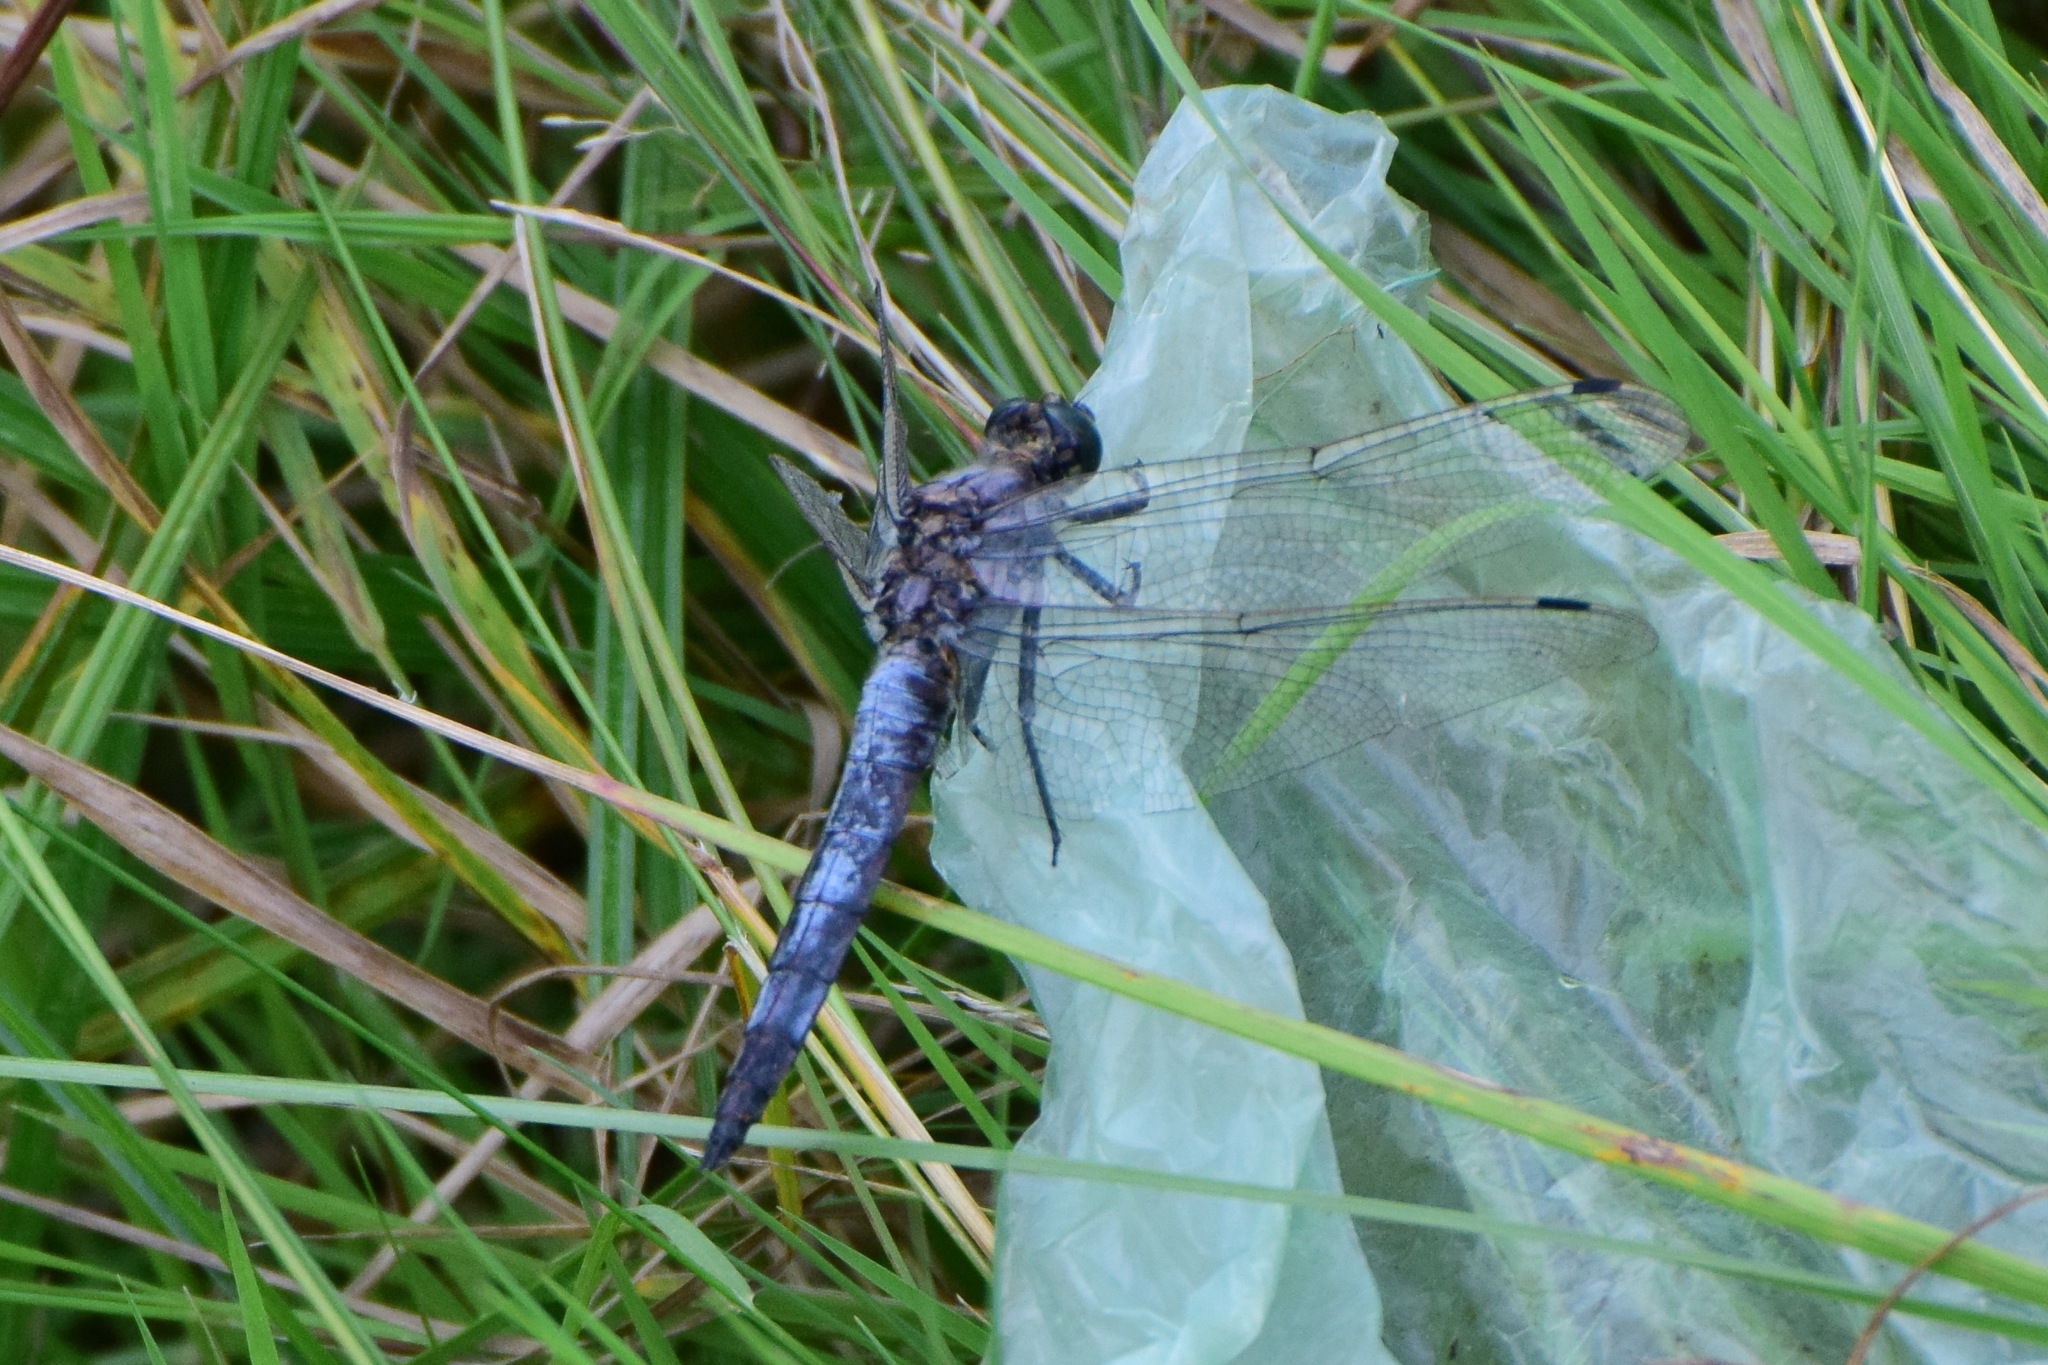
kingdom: Animalia
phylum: Arthropoda
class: Insecta
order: Odonata
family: Libellulidae
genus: Orthetrum
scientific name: Orthetrum cancellatum
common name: Black-tailed skimmer
